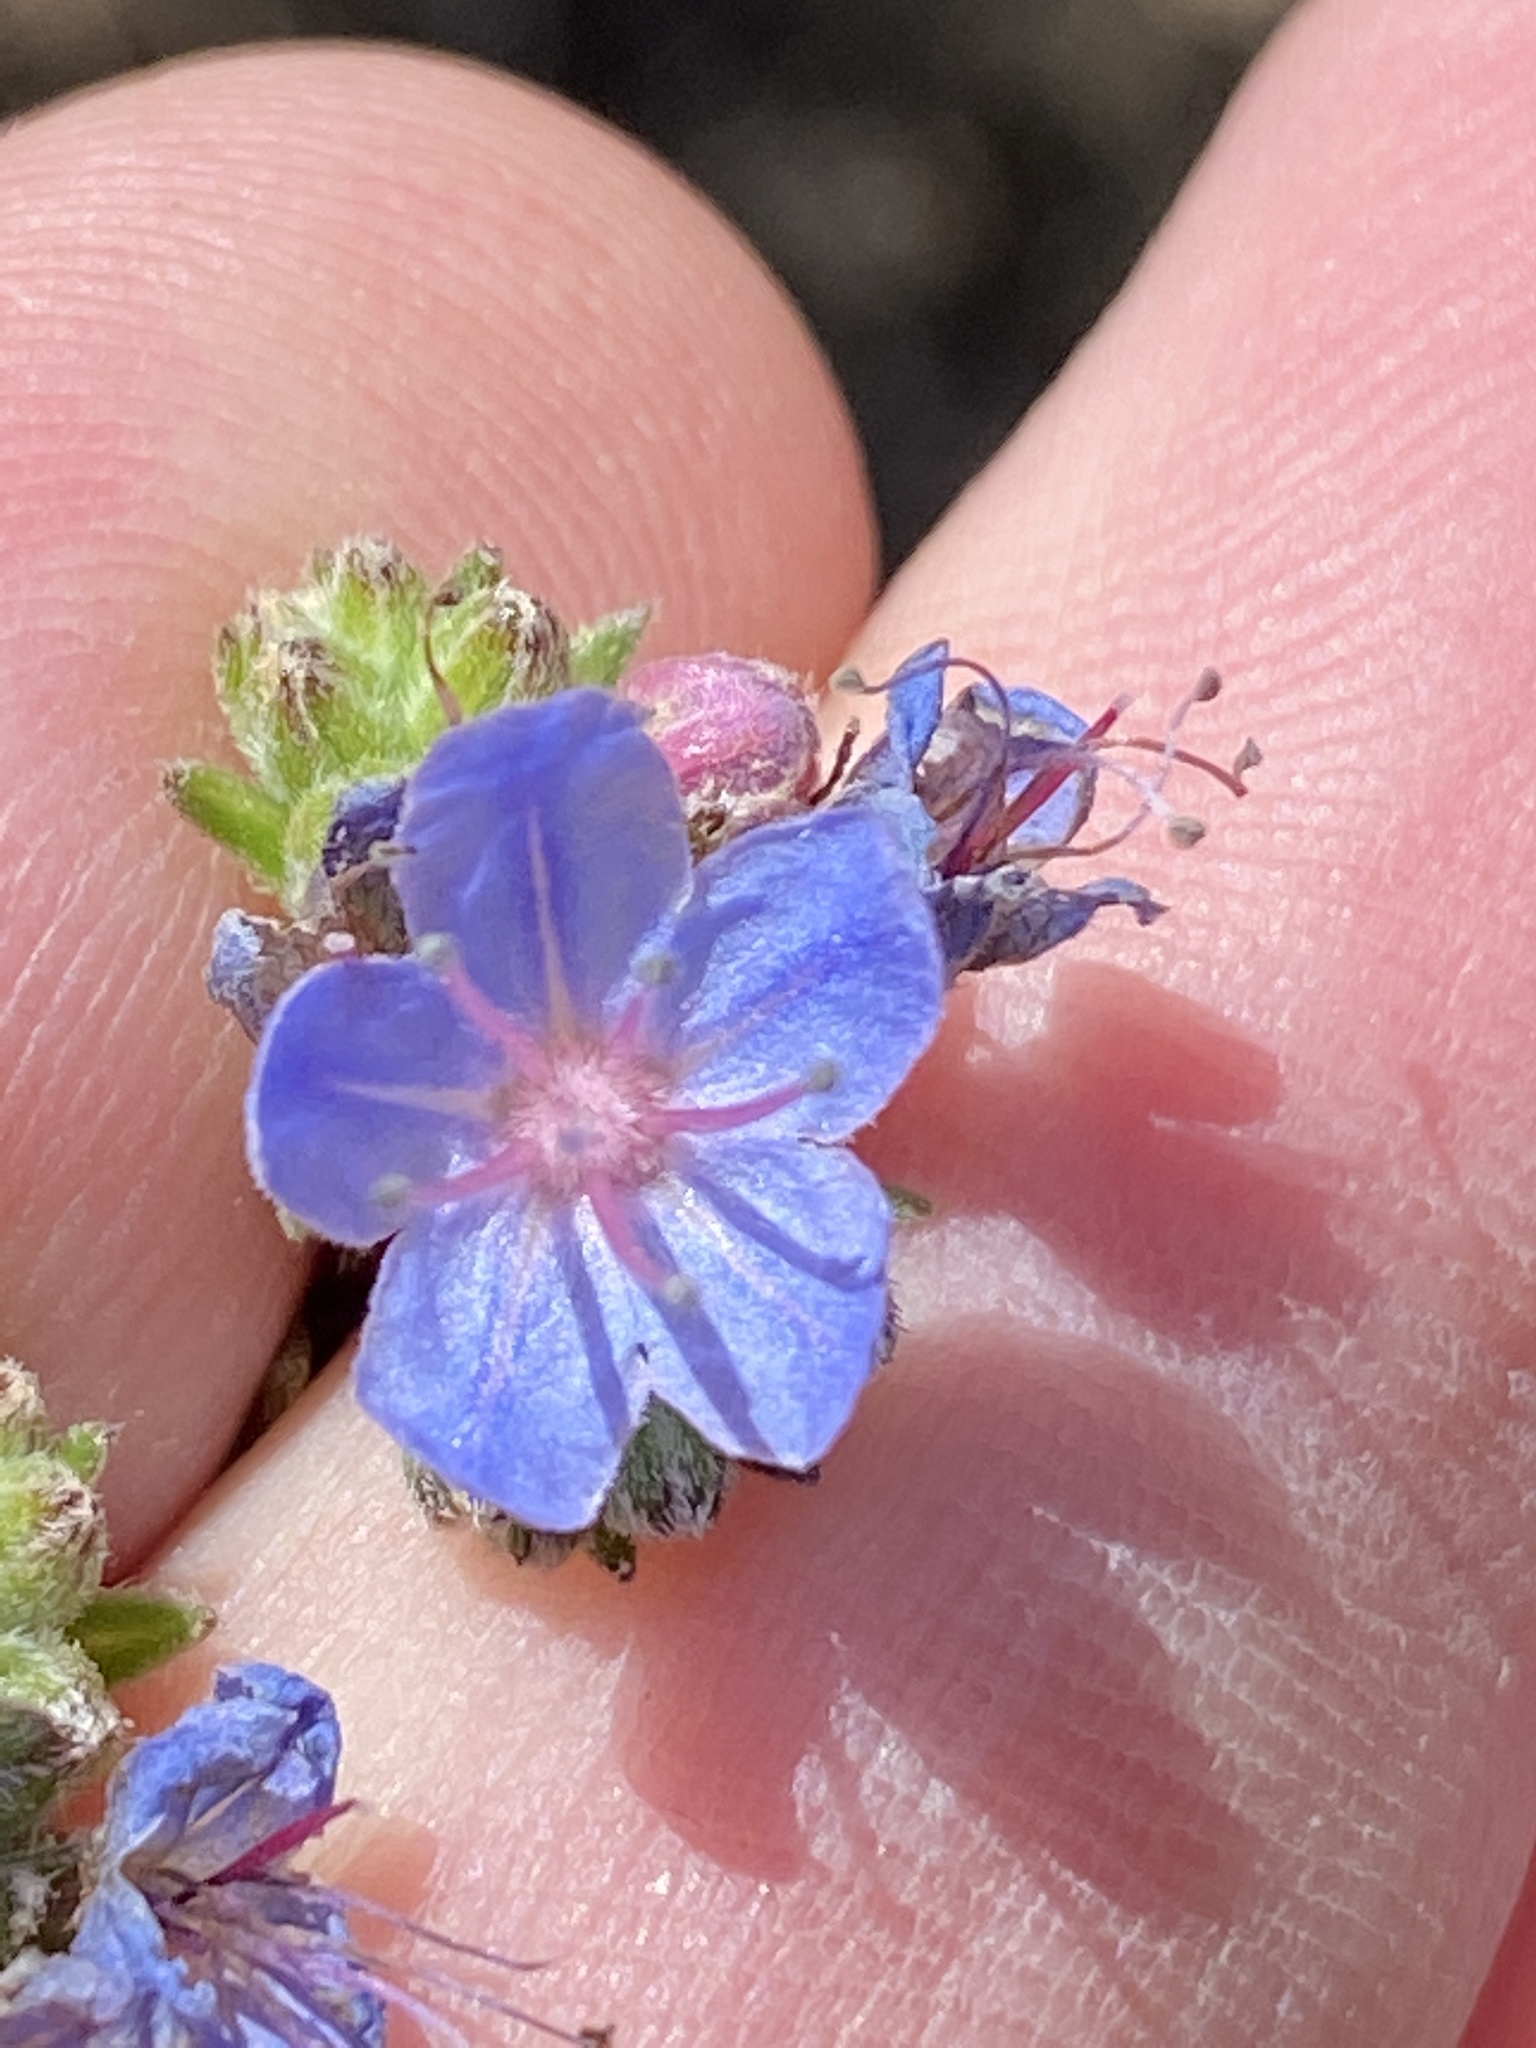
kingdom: Plantae
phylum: Tracheophyta
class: Magnoliopsida
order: Boraginales
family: Boraginaceae
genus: Lobostemon
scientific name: Lobostemon fruticosus
